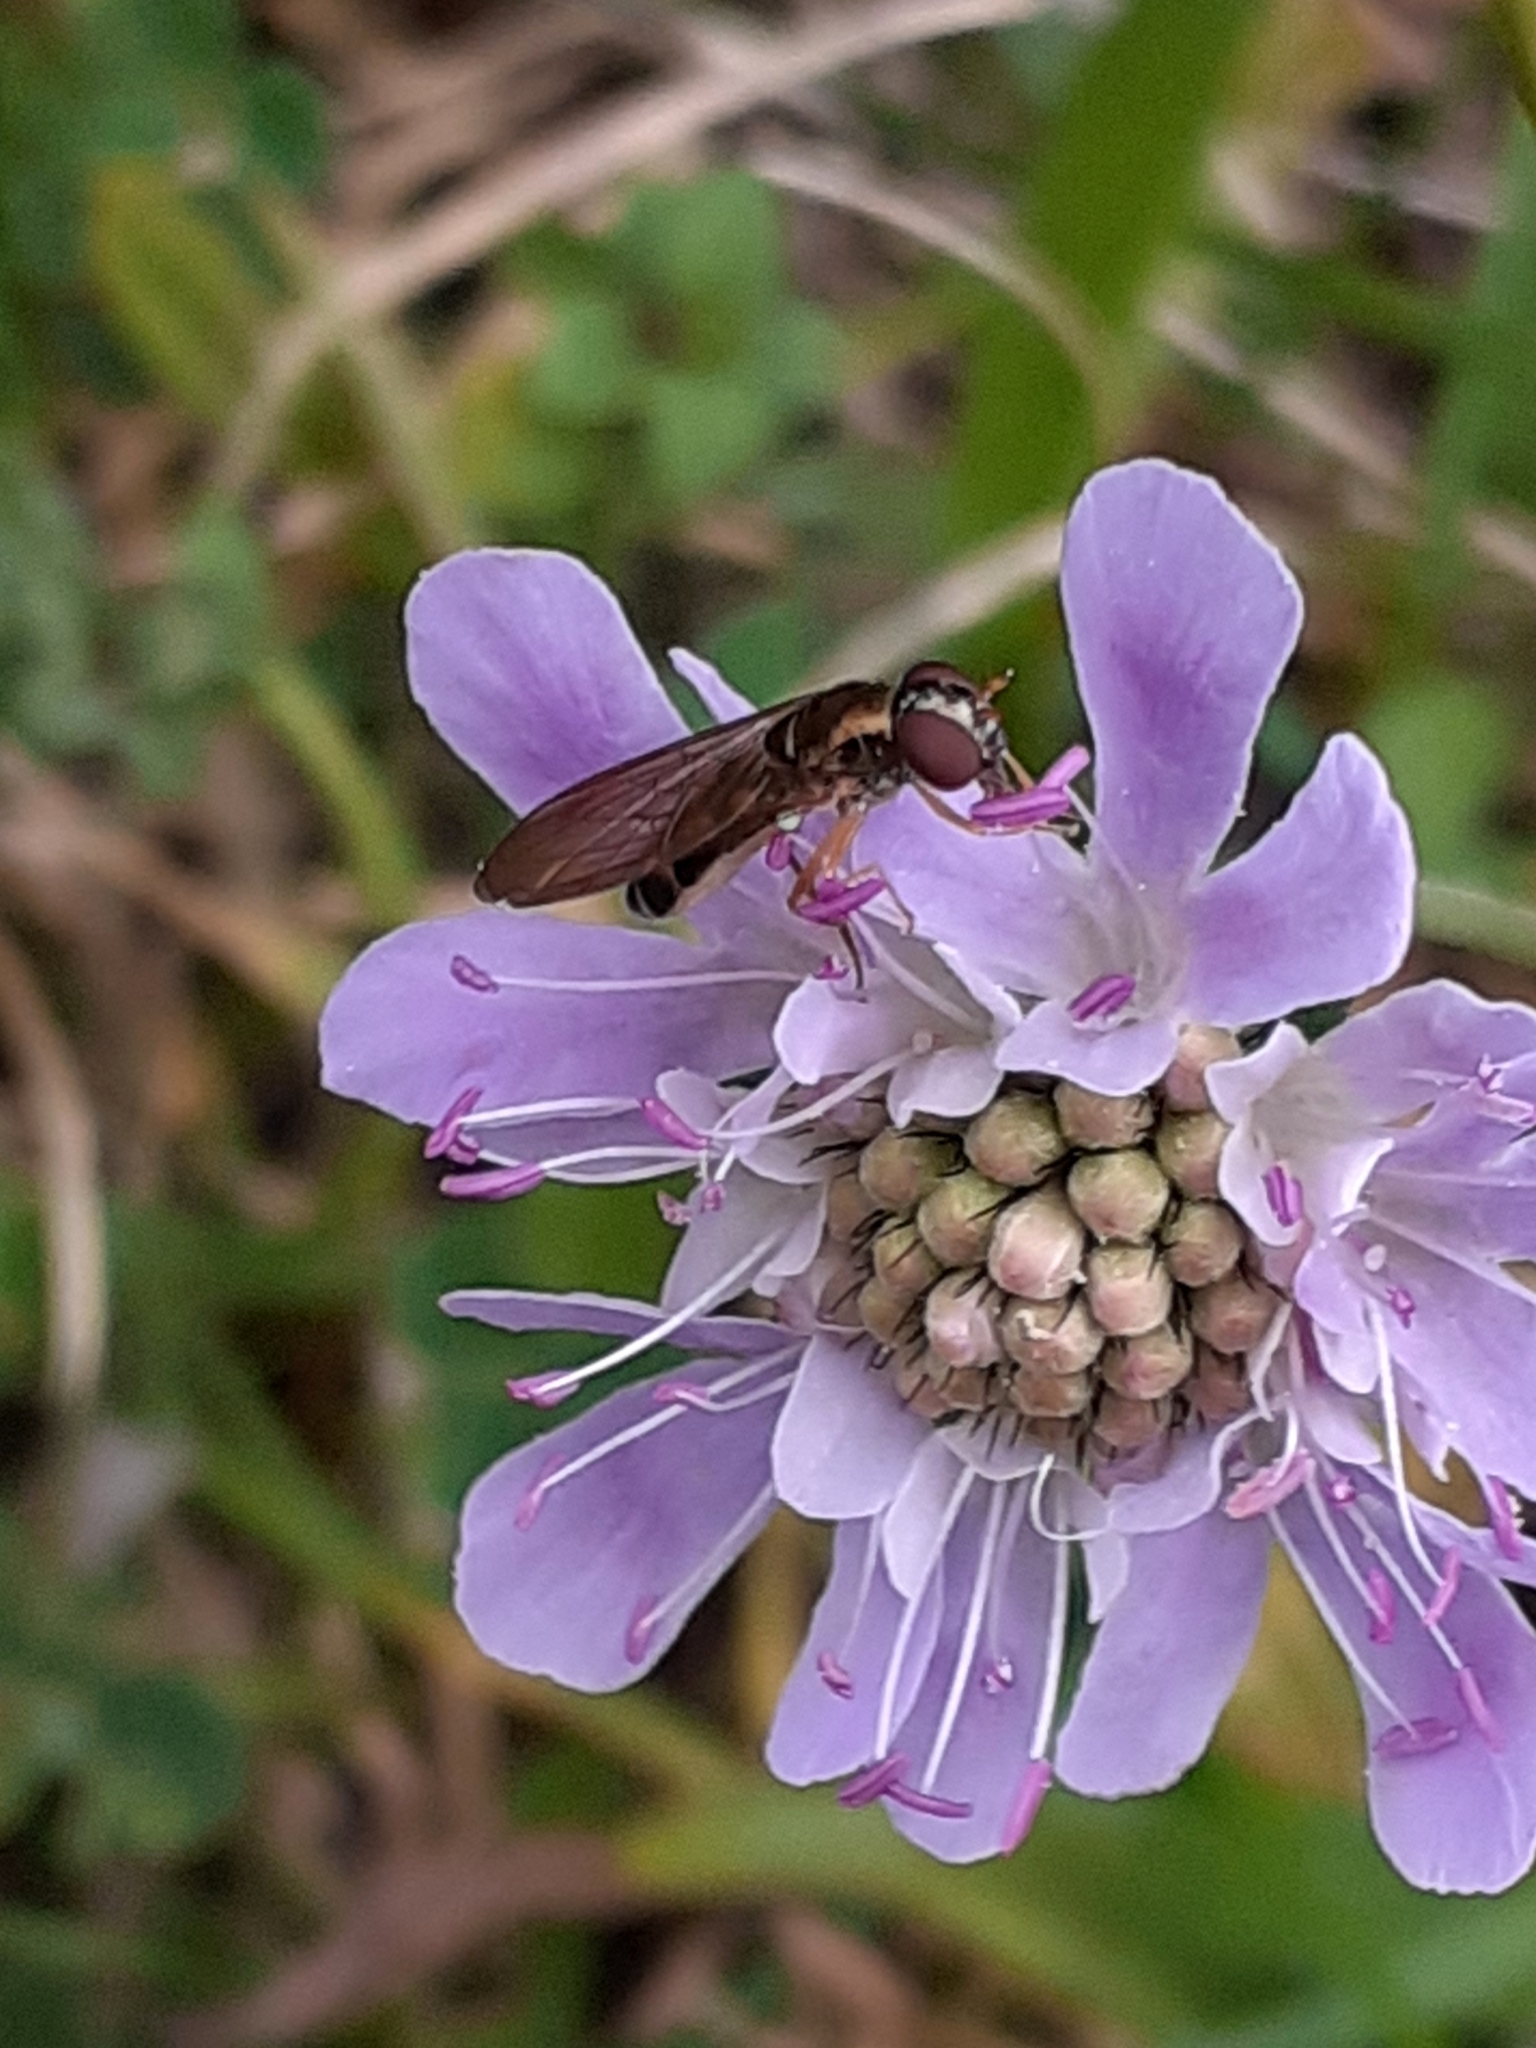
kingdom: Animalia
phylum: Arthropoda
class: Insecta
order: Diptera
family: Syrphidae
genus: Melanostoma
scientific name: Melanostoma scalare
